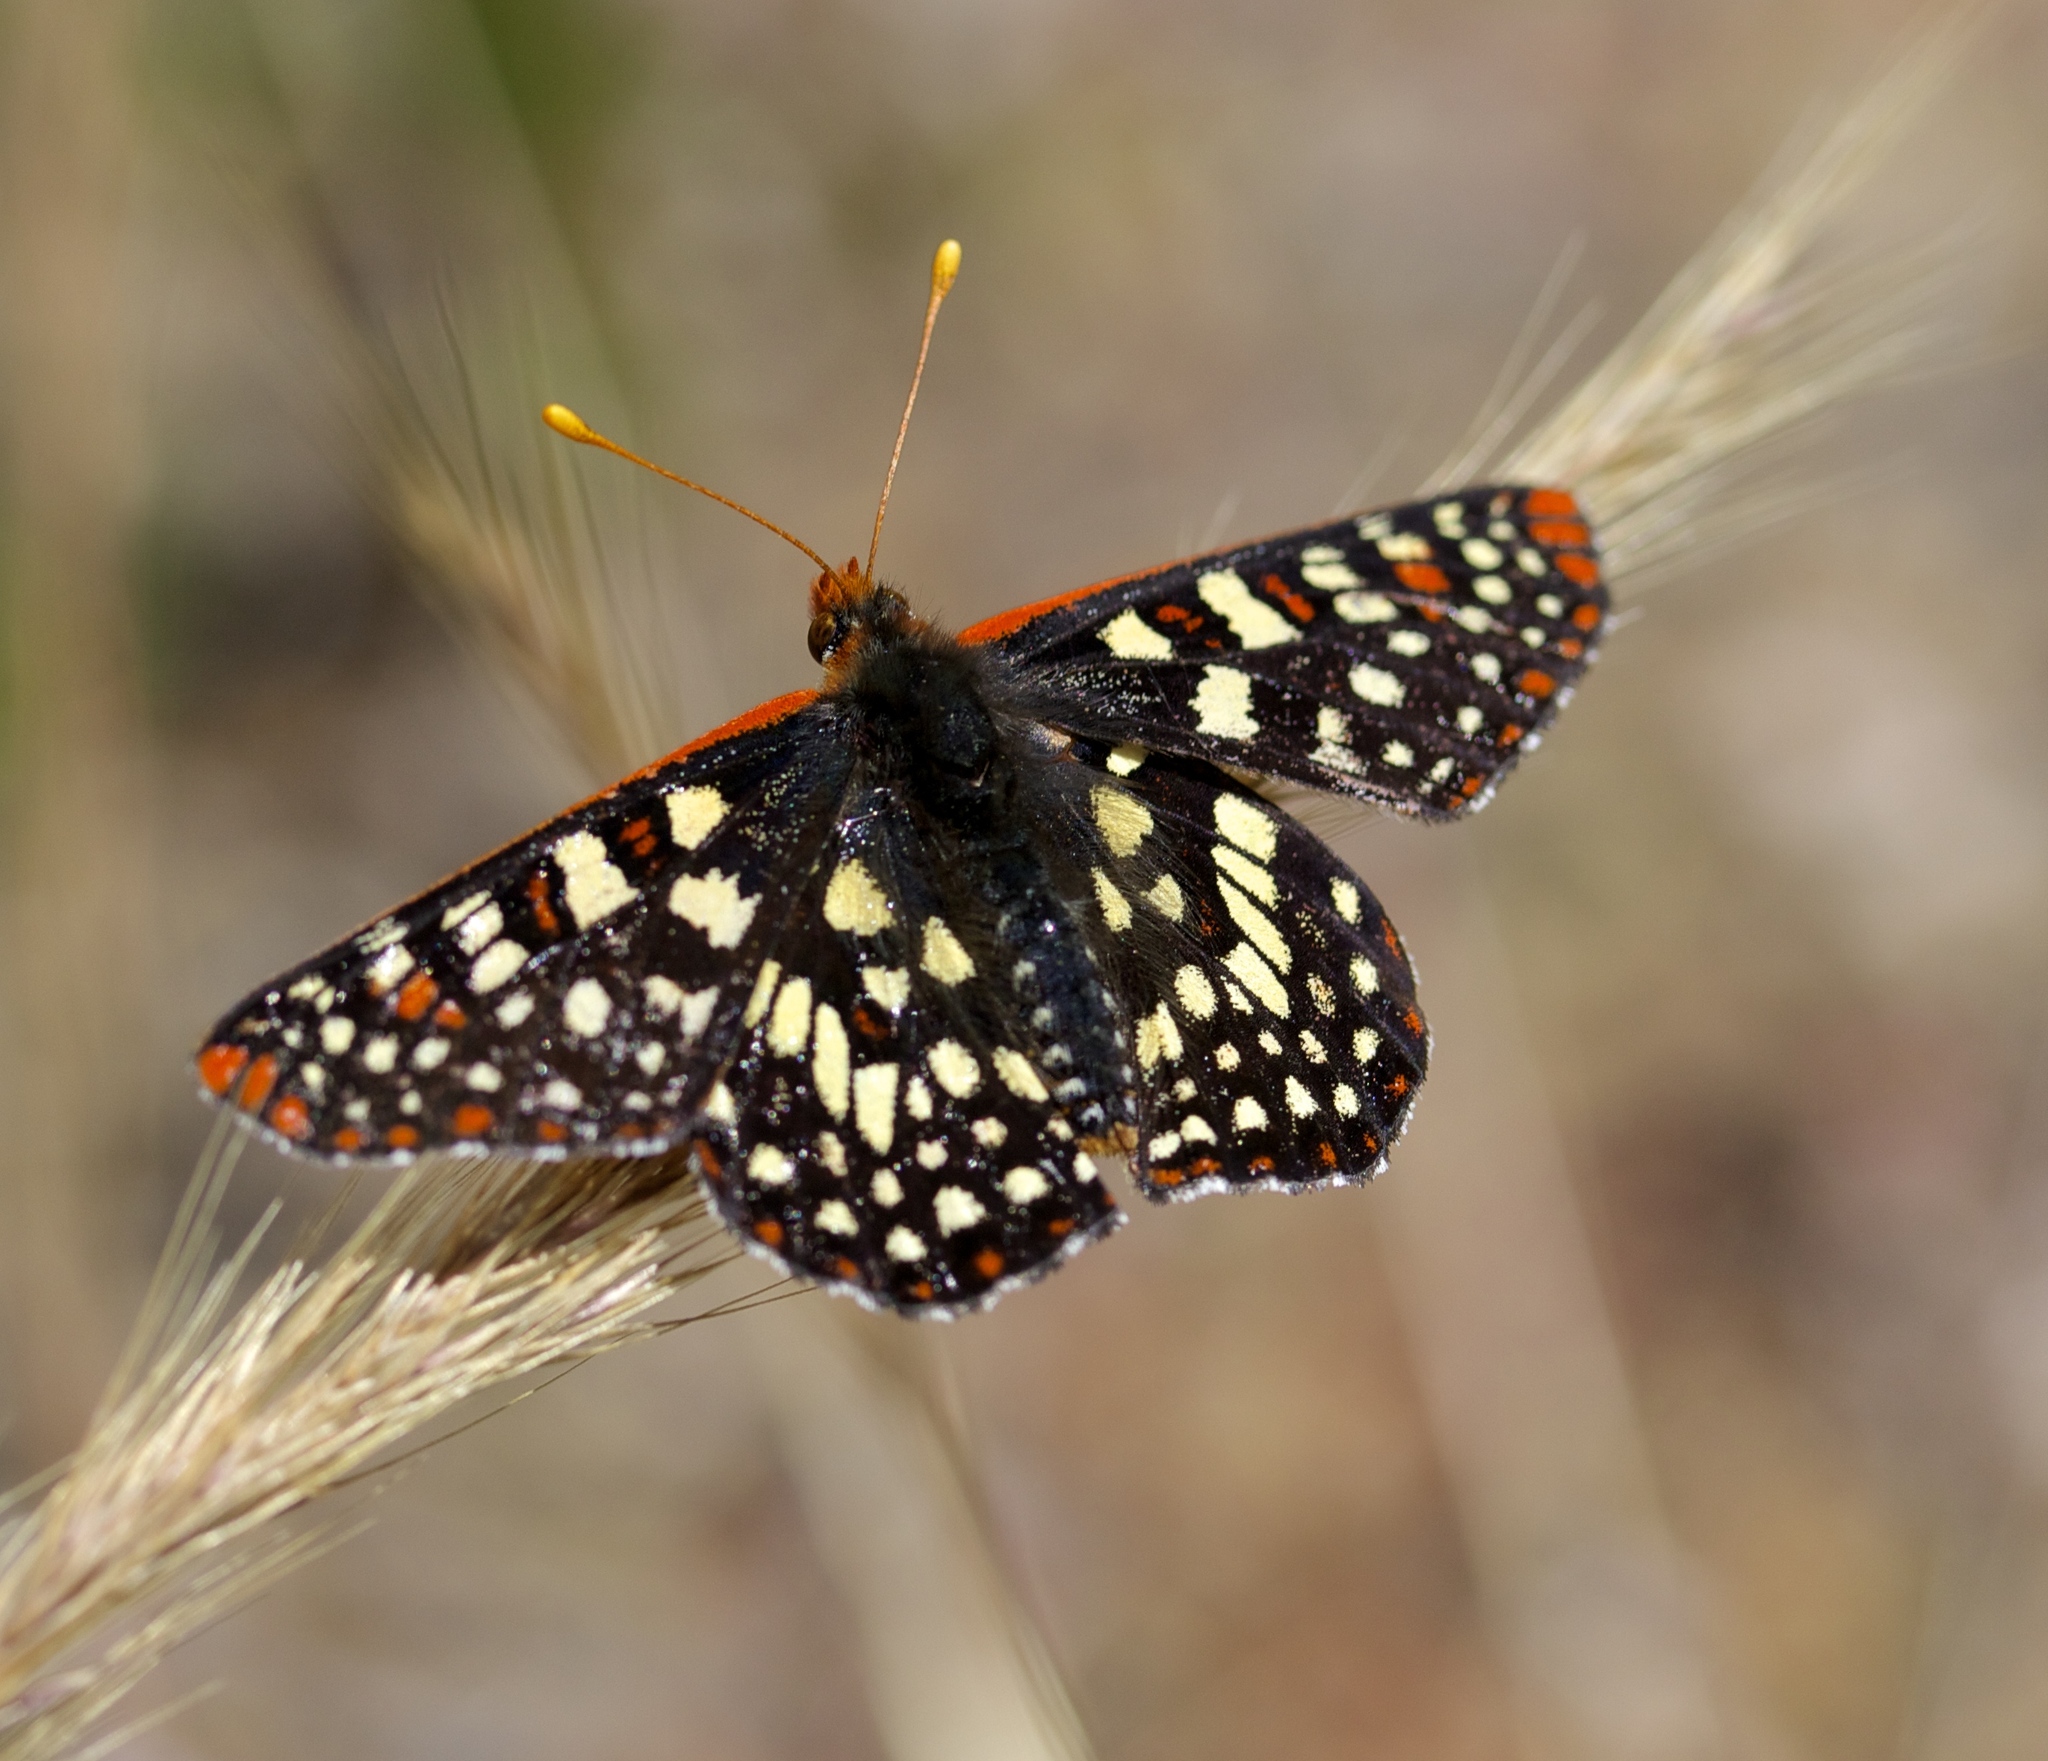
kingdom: Animalia
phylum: Arthropoda
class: Insecta
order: Lepidoptera
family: Nymphalidae
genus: Occidryas
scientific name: Occidryas chalcedona
